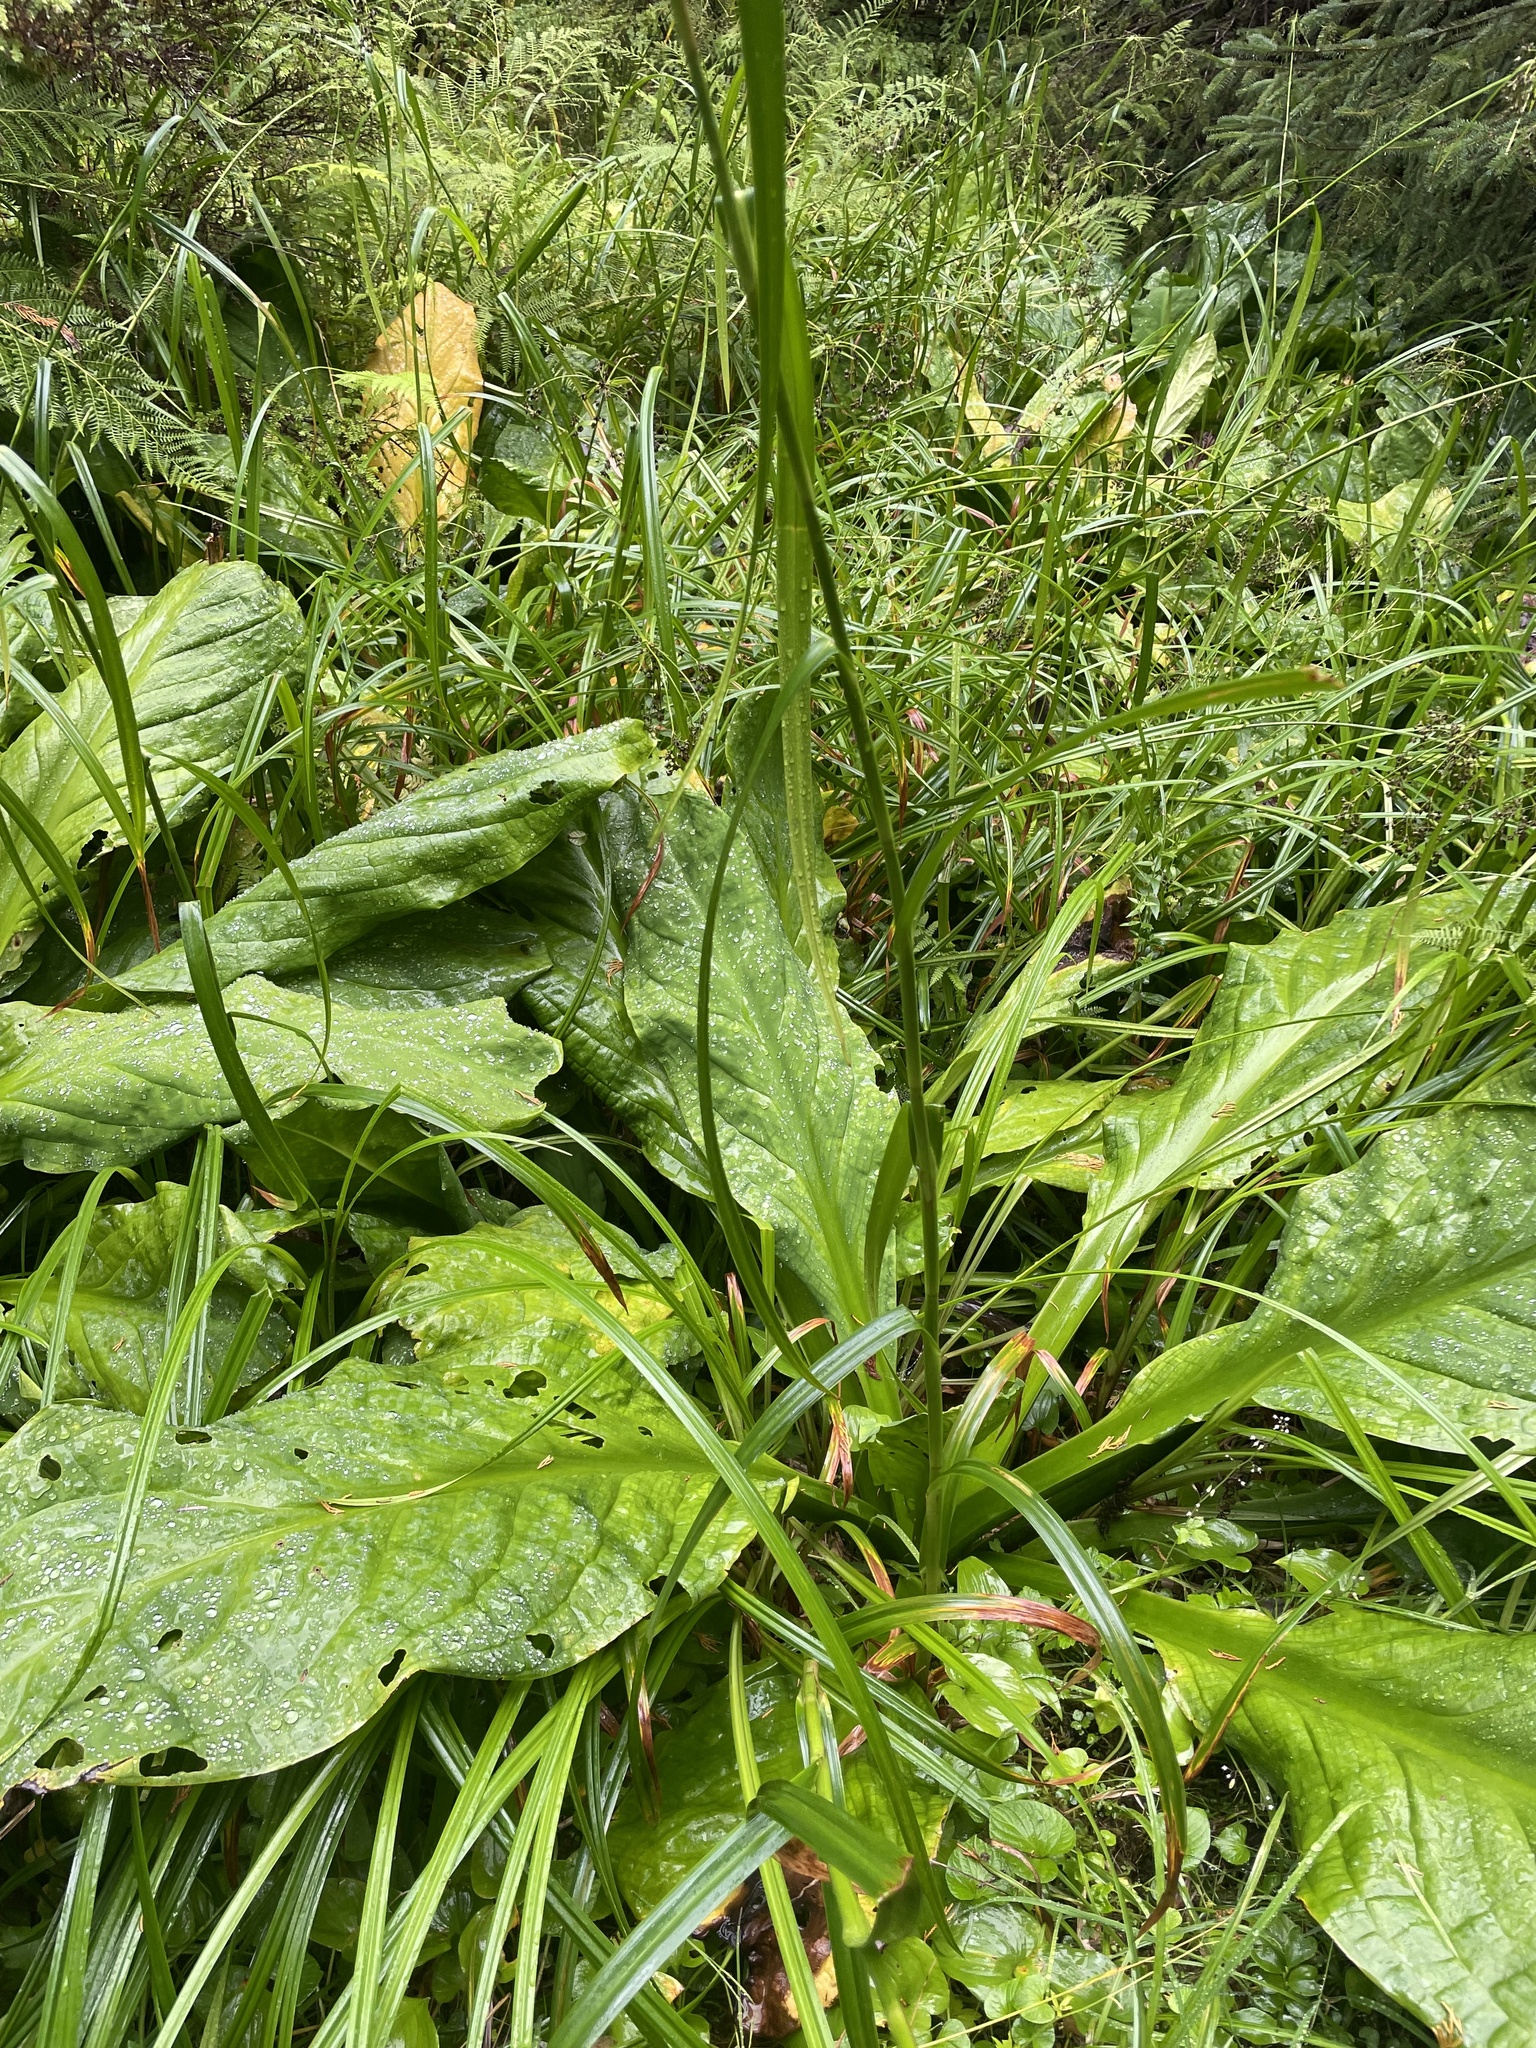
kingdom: Plantae
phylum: Tracheophyta
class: Liliopsida
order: Alismatales
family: Araceae
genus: Lysichiton
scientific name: Lysichiton americanus
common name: American skunk cabbage
